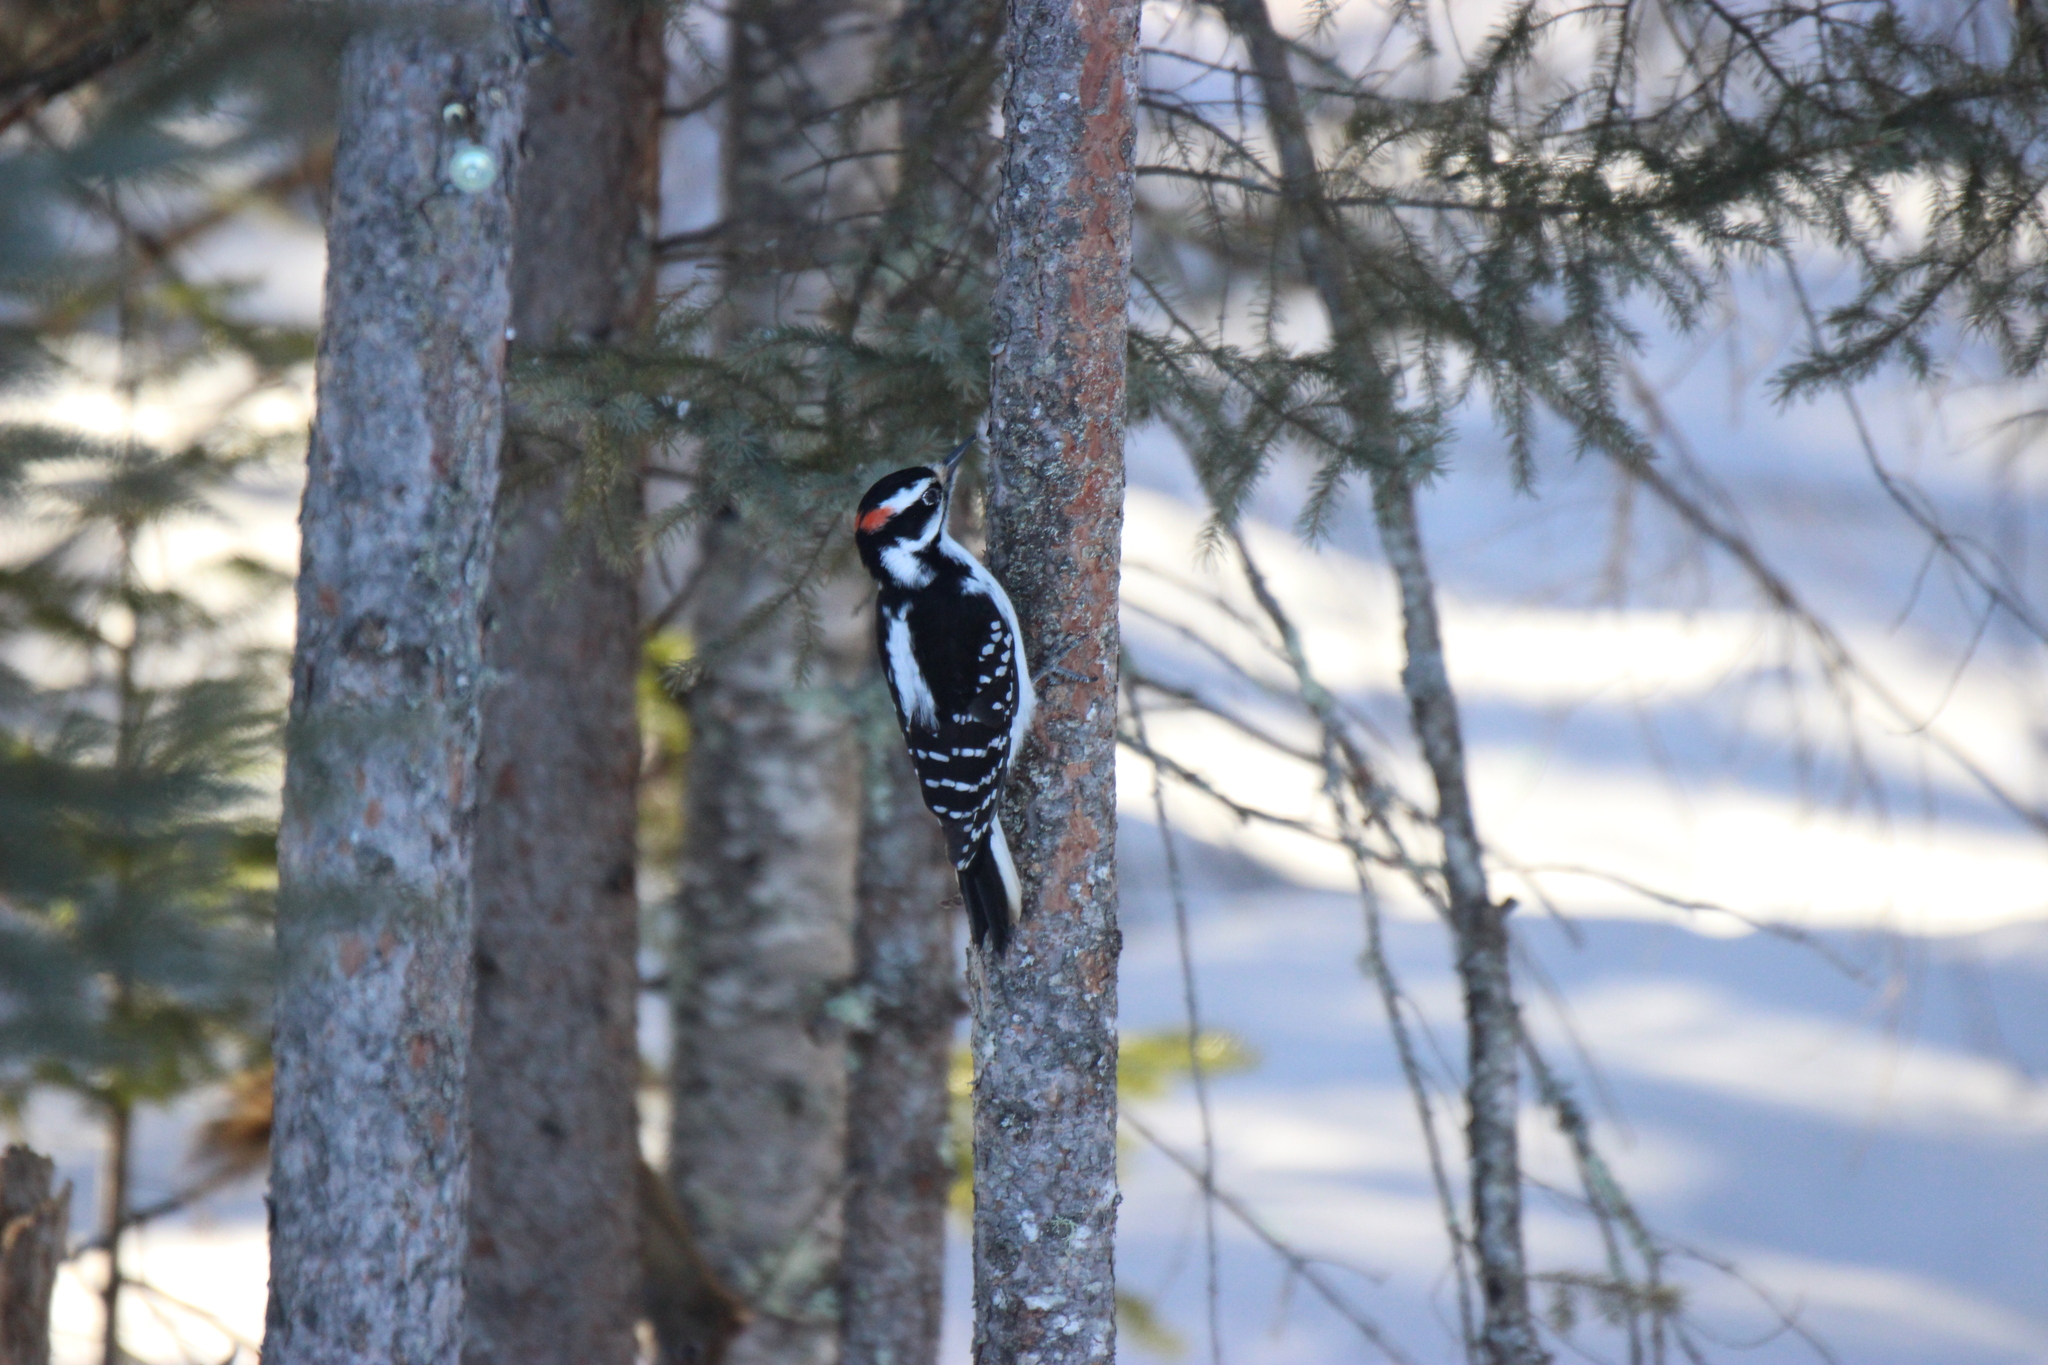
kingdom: Animalia
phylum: Chordata
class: Aves
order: Piciformes
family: Picidae
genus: Leuconotopicus
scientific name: Leuconotopicus villosus
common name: Hairy woodpecker
